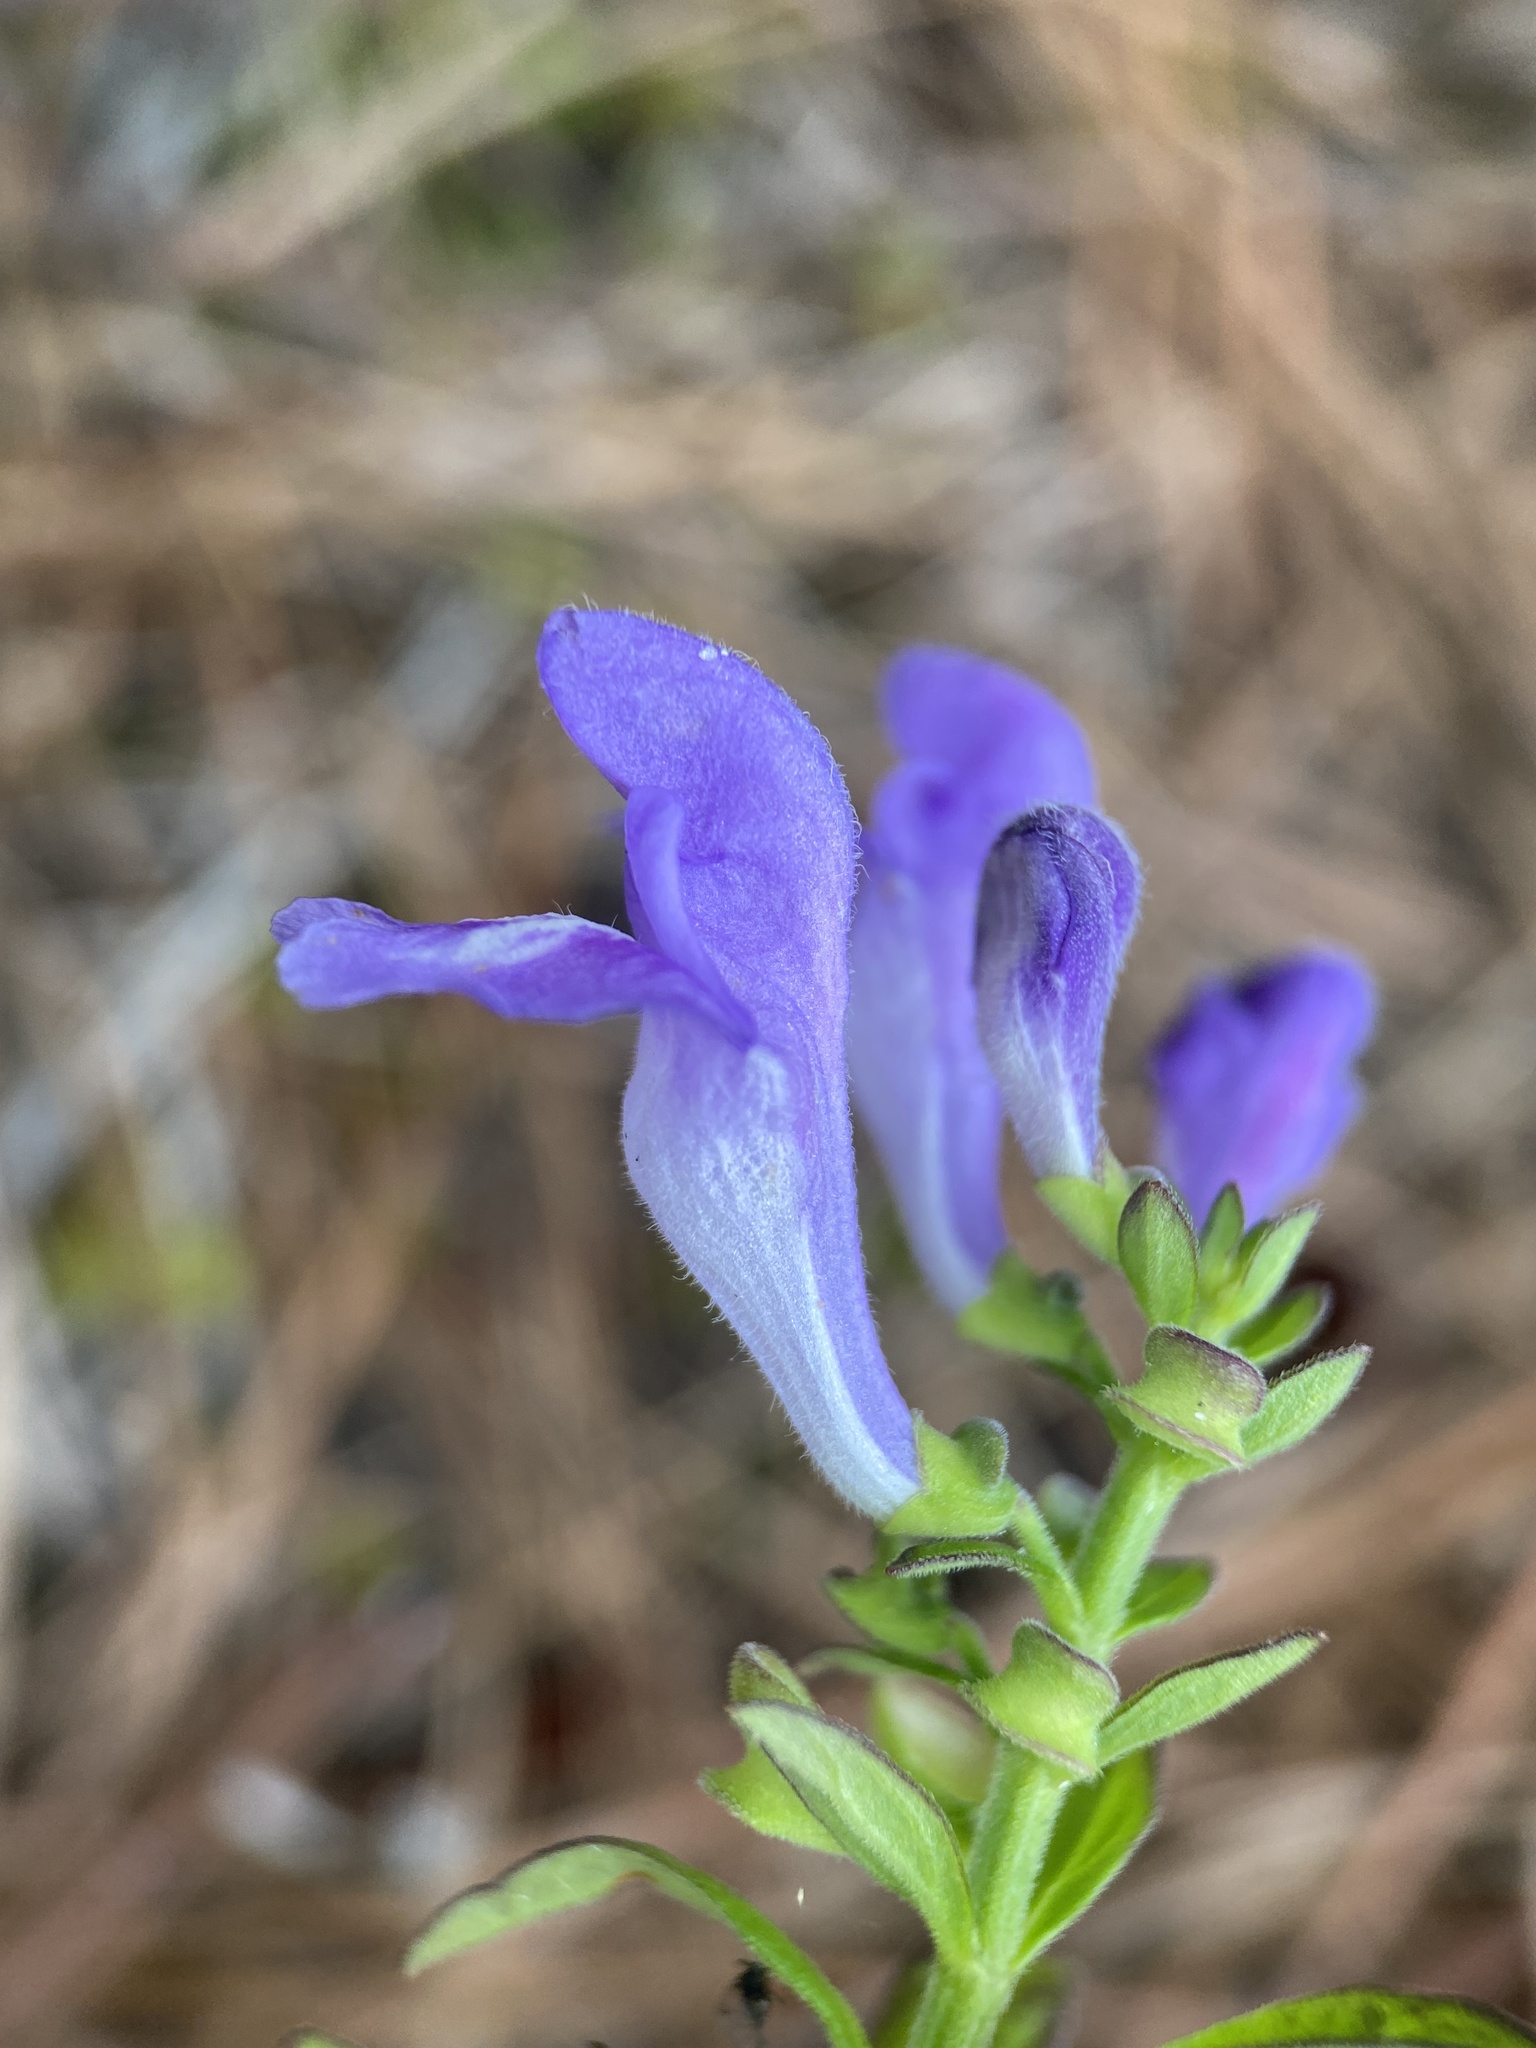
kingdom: Plantae
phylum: Tracheophyta
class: Magnoliopsida
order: Lamiales
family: Lamiaceae
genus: Scutellaria
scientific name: Scutellaria integrifolia
